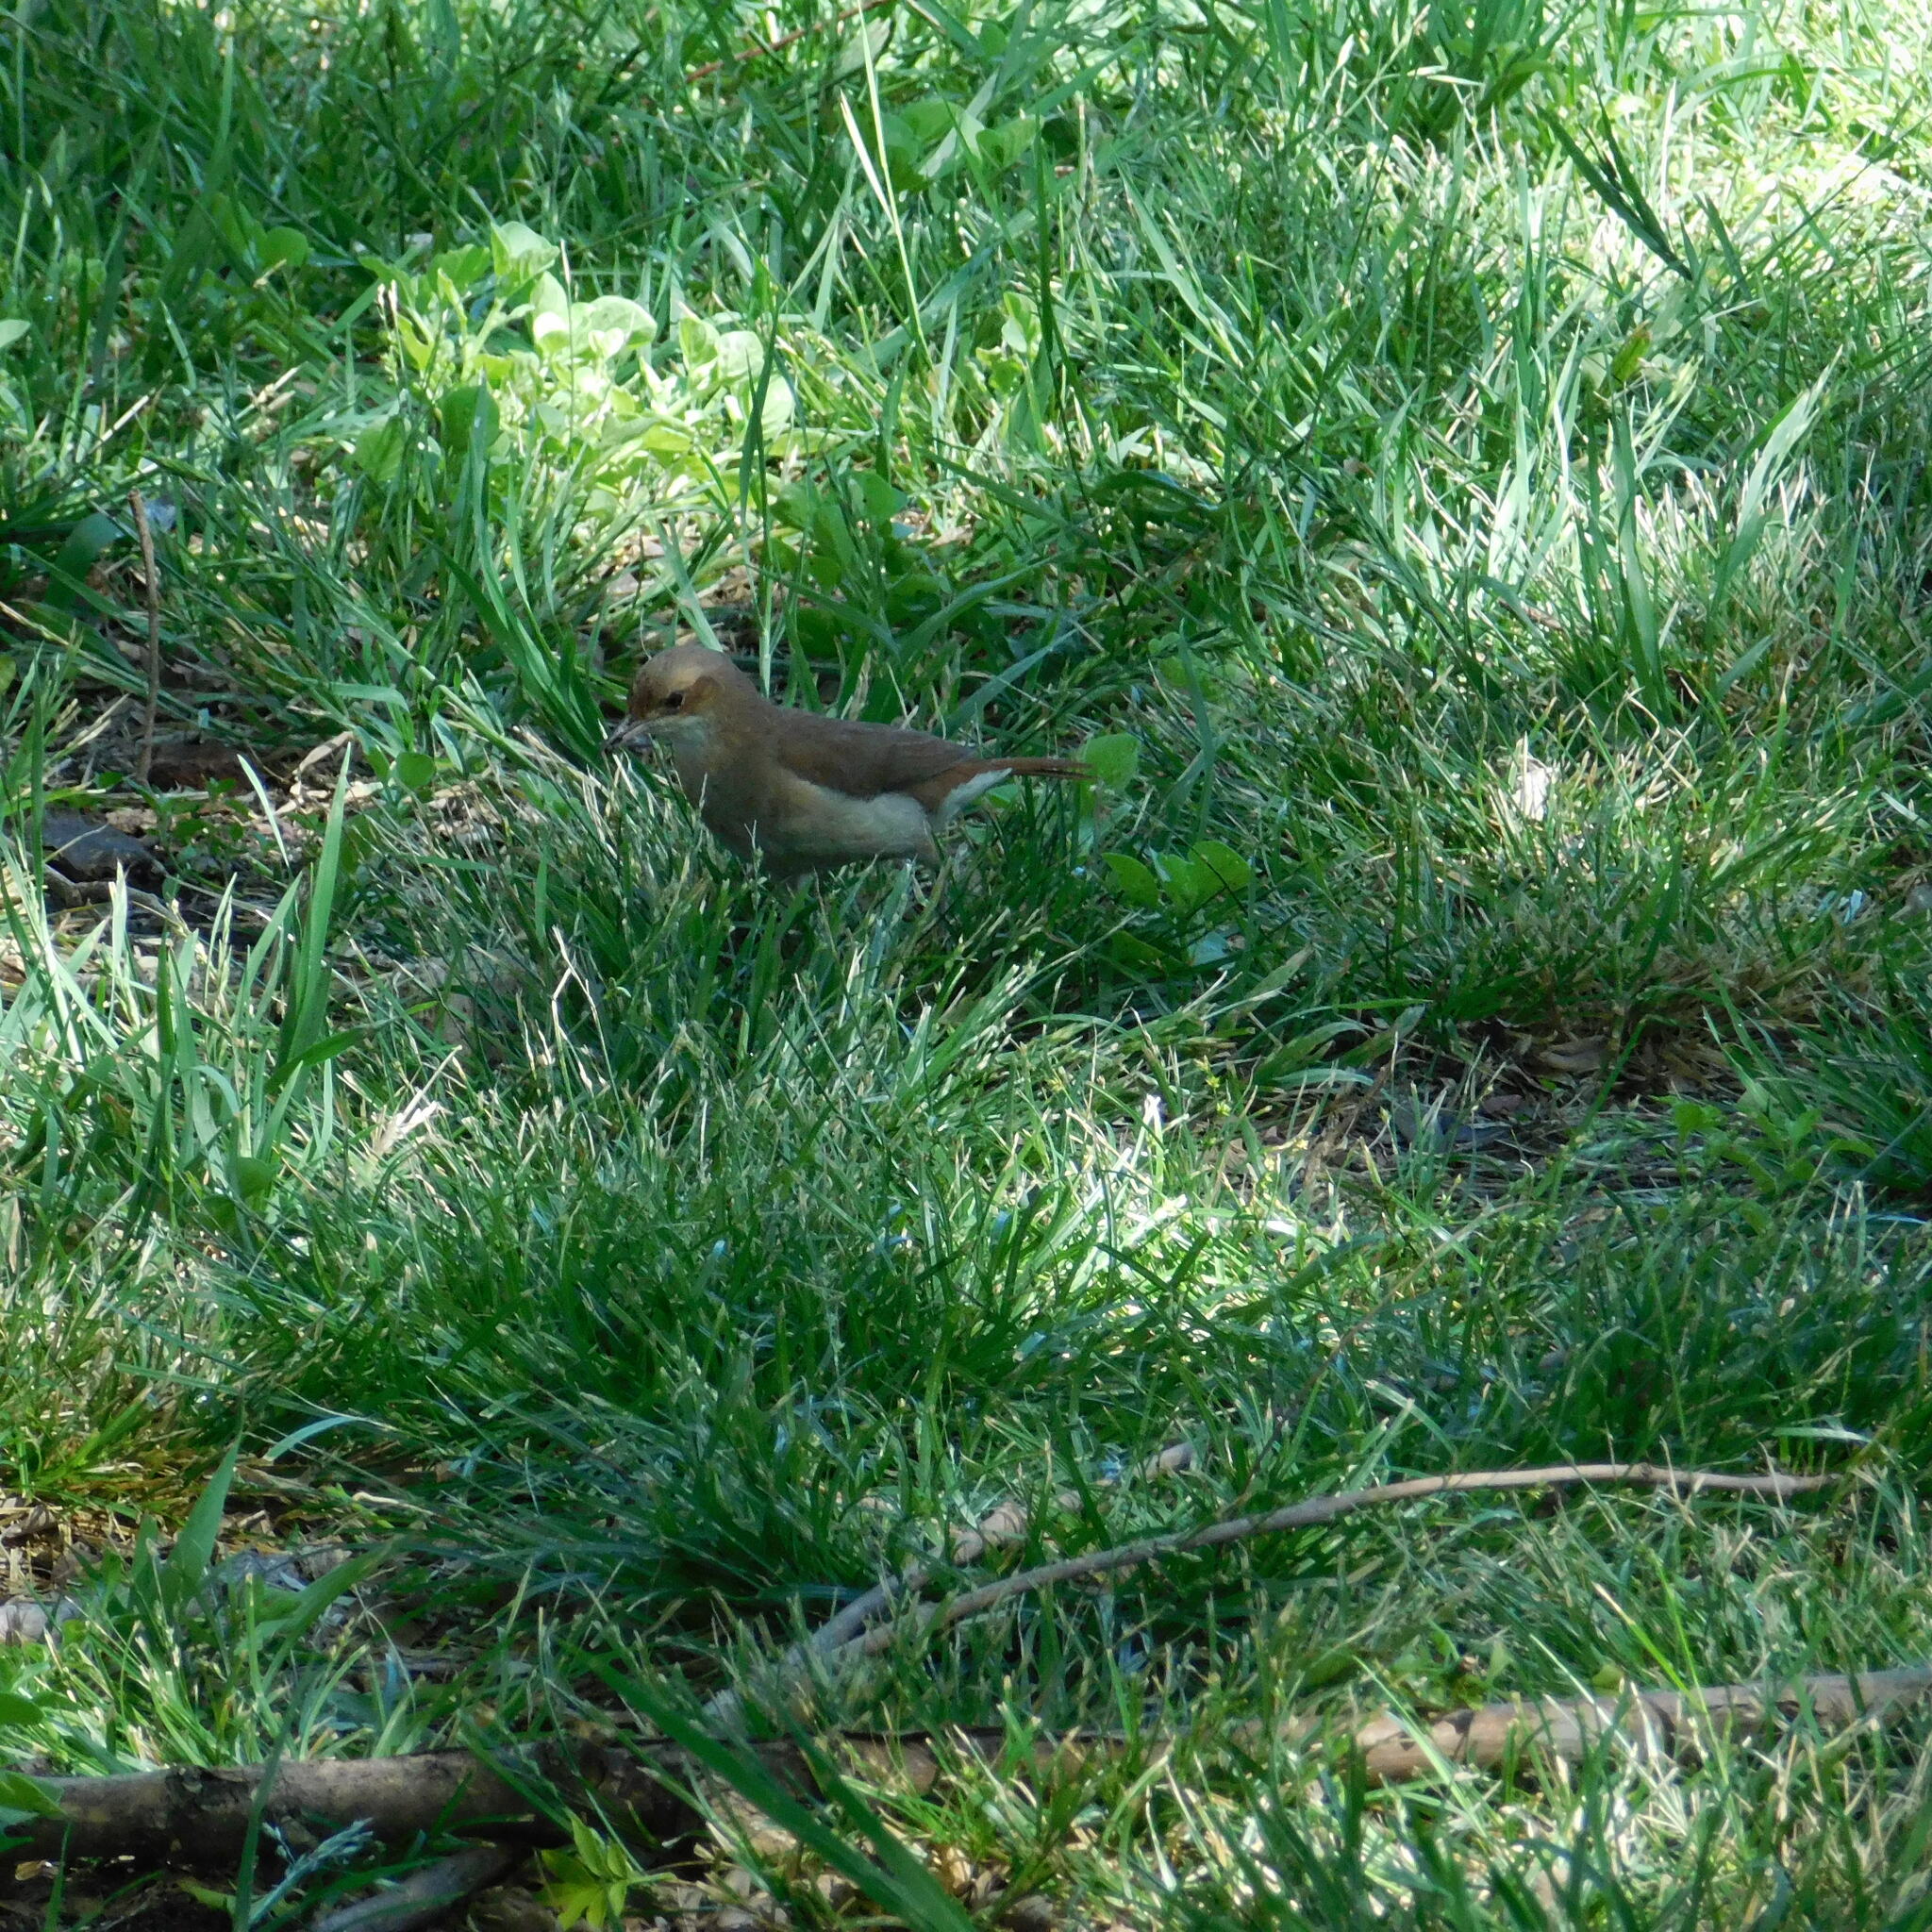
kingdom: Animalia
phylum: Chordata
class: Aves
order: Passeriformes
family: Furnariidae
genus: Furnarius
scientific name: Furnarius rufus
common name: Rufous hornero
